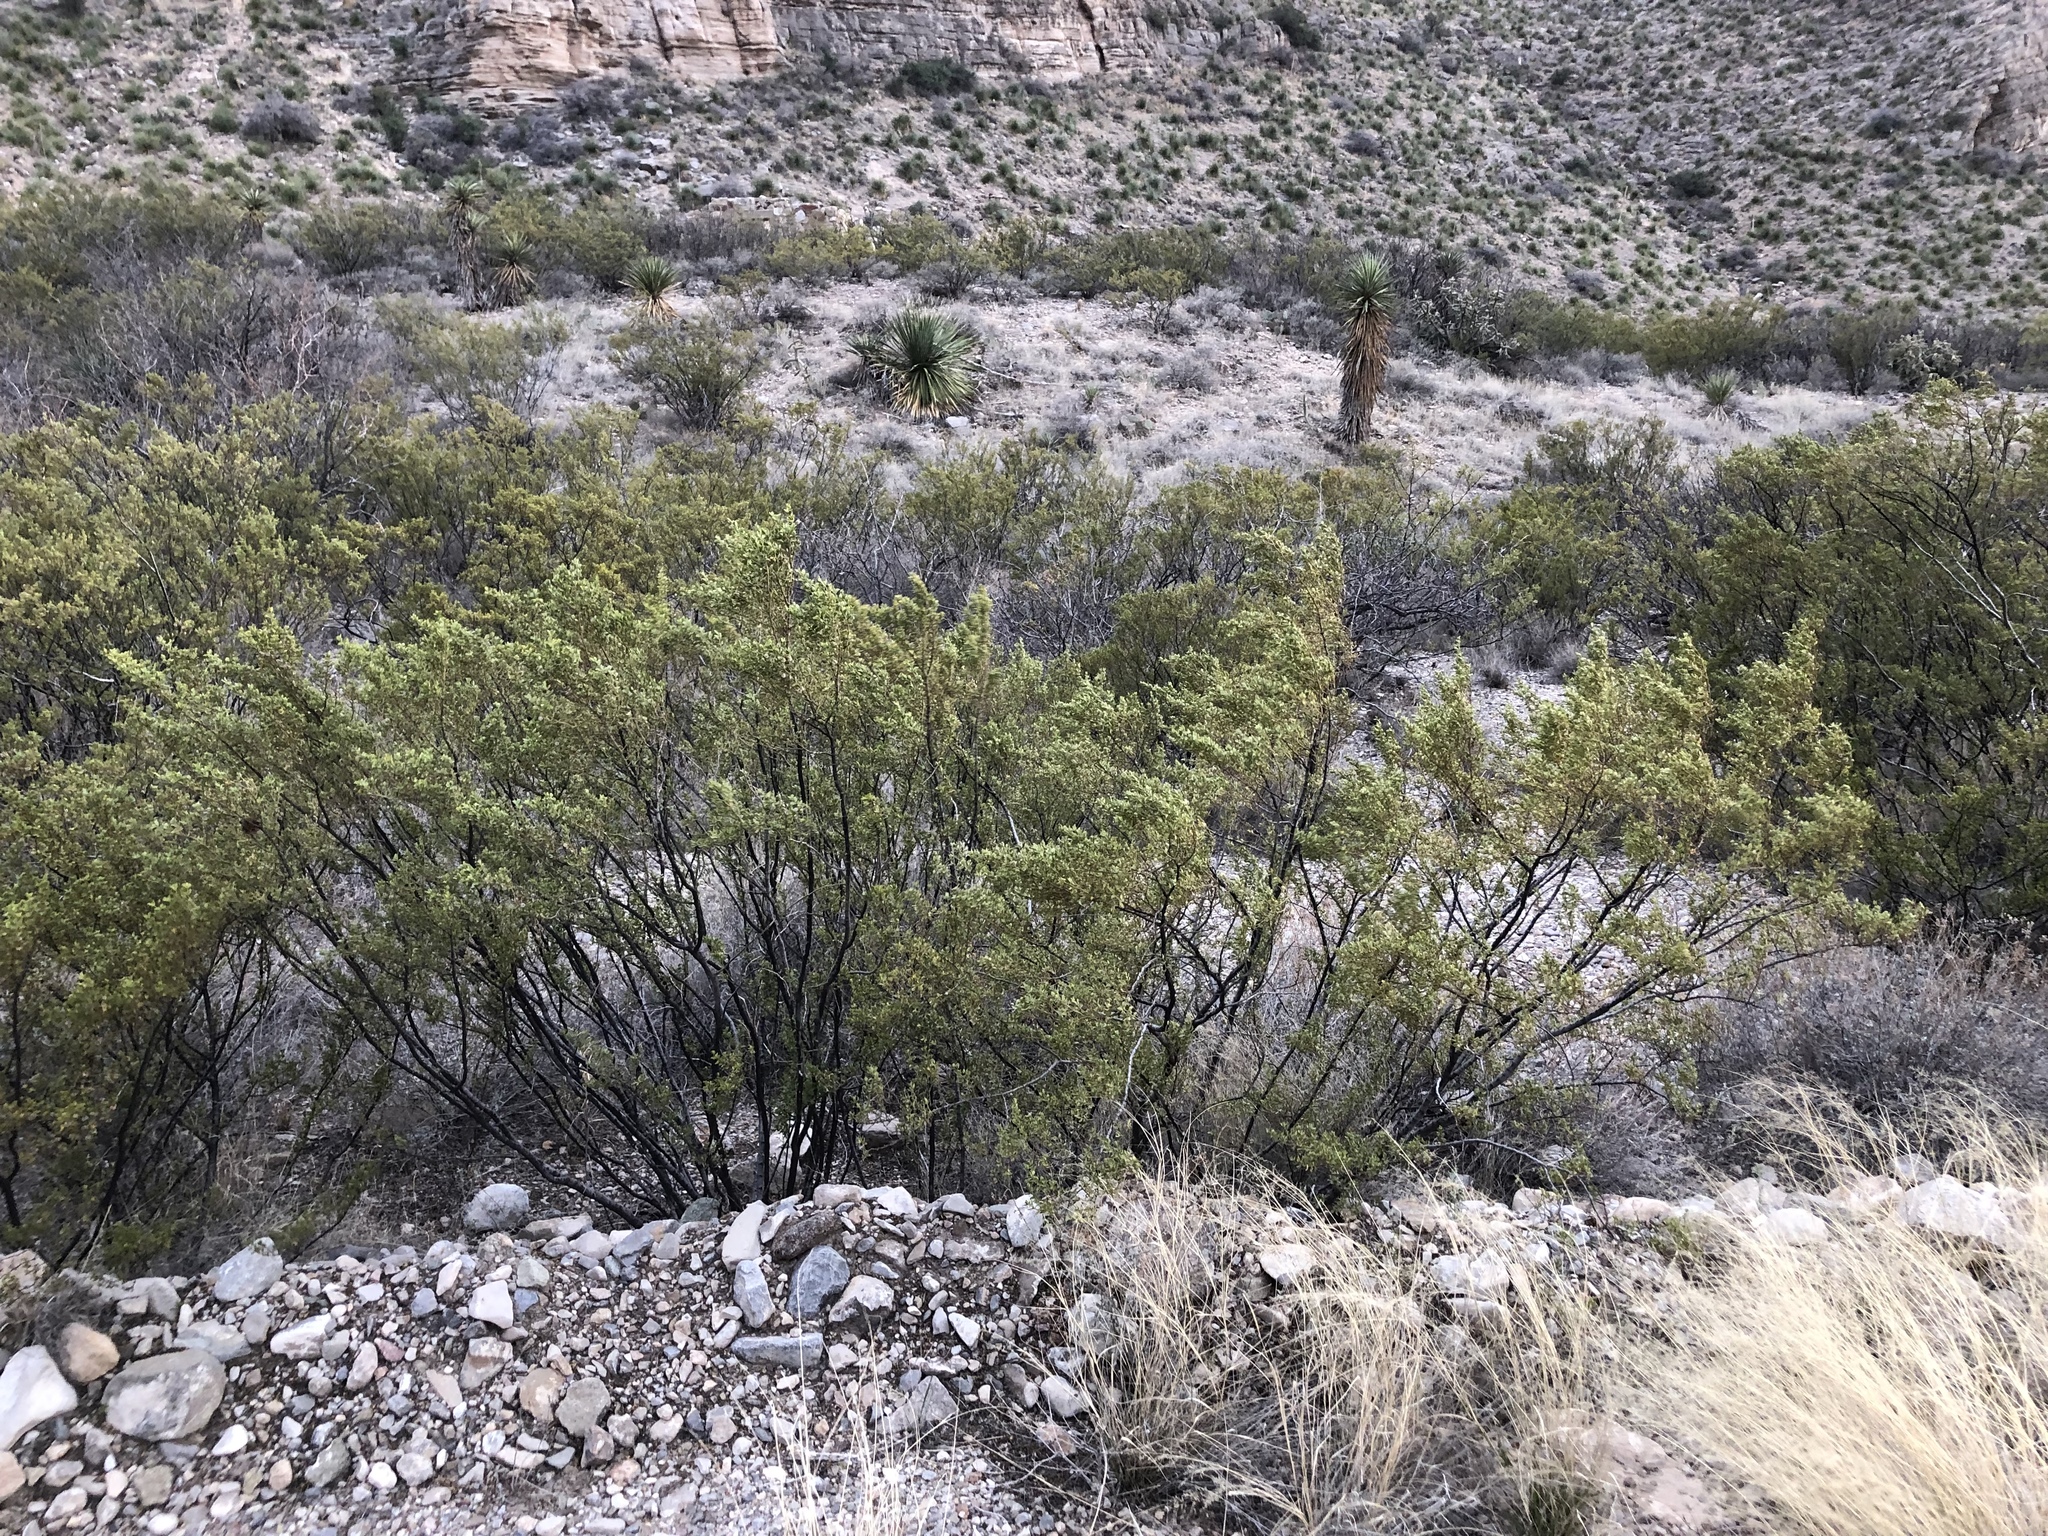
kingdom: Plantae
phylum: Tracheophyta
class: Magnoliopsida
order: Zygophyllales
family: Zygophyllaceae
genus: Larrea
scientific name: Larrea tridentata
